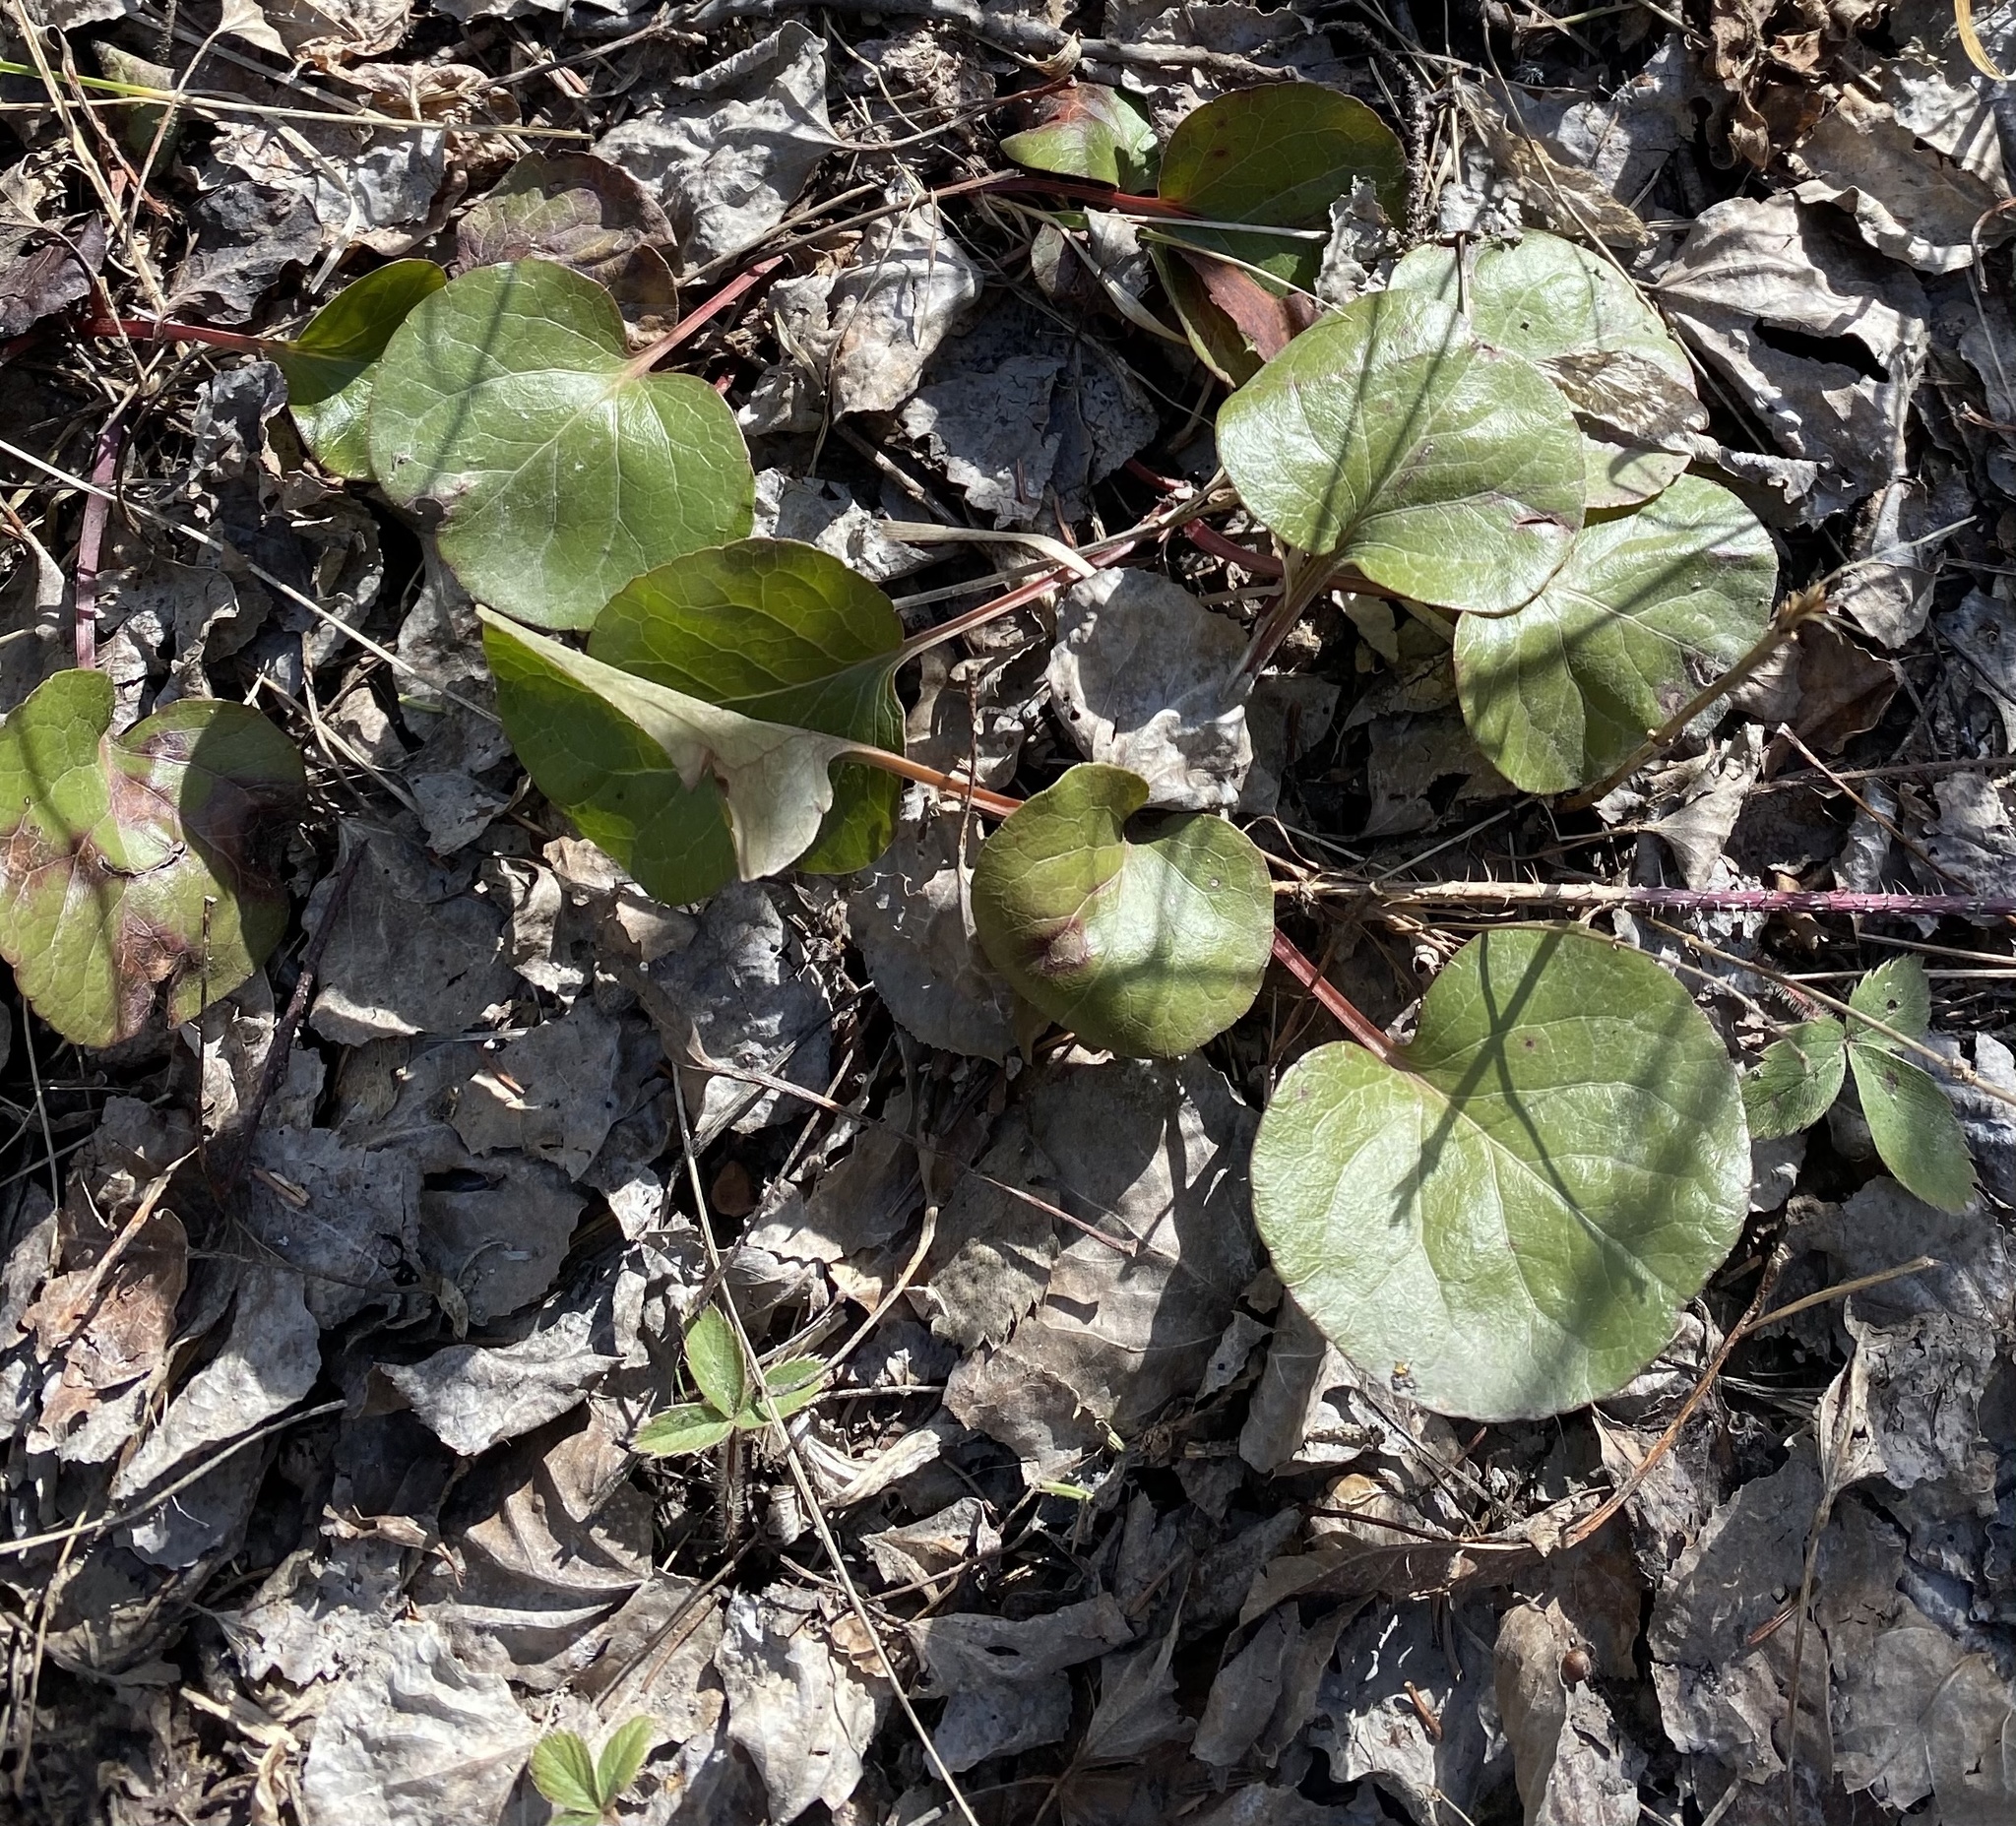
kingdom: Plantae
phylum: Tracheophyta
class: Magnoliopsida
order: Ericales
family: Ericaceae
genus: Pyrola
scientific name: Pyrola asarifolia
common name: Bog wintergreen
